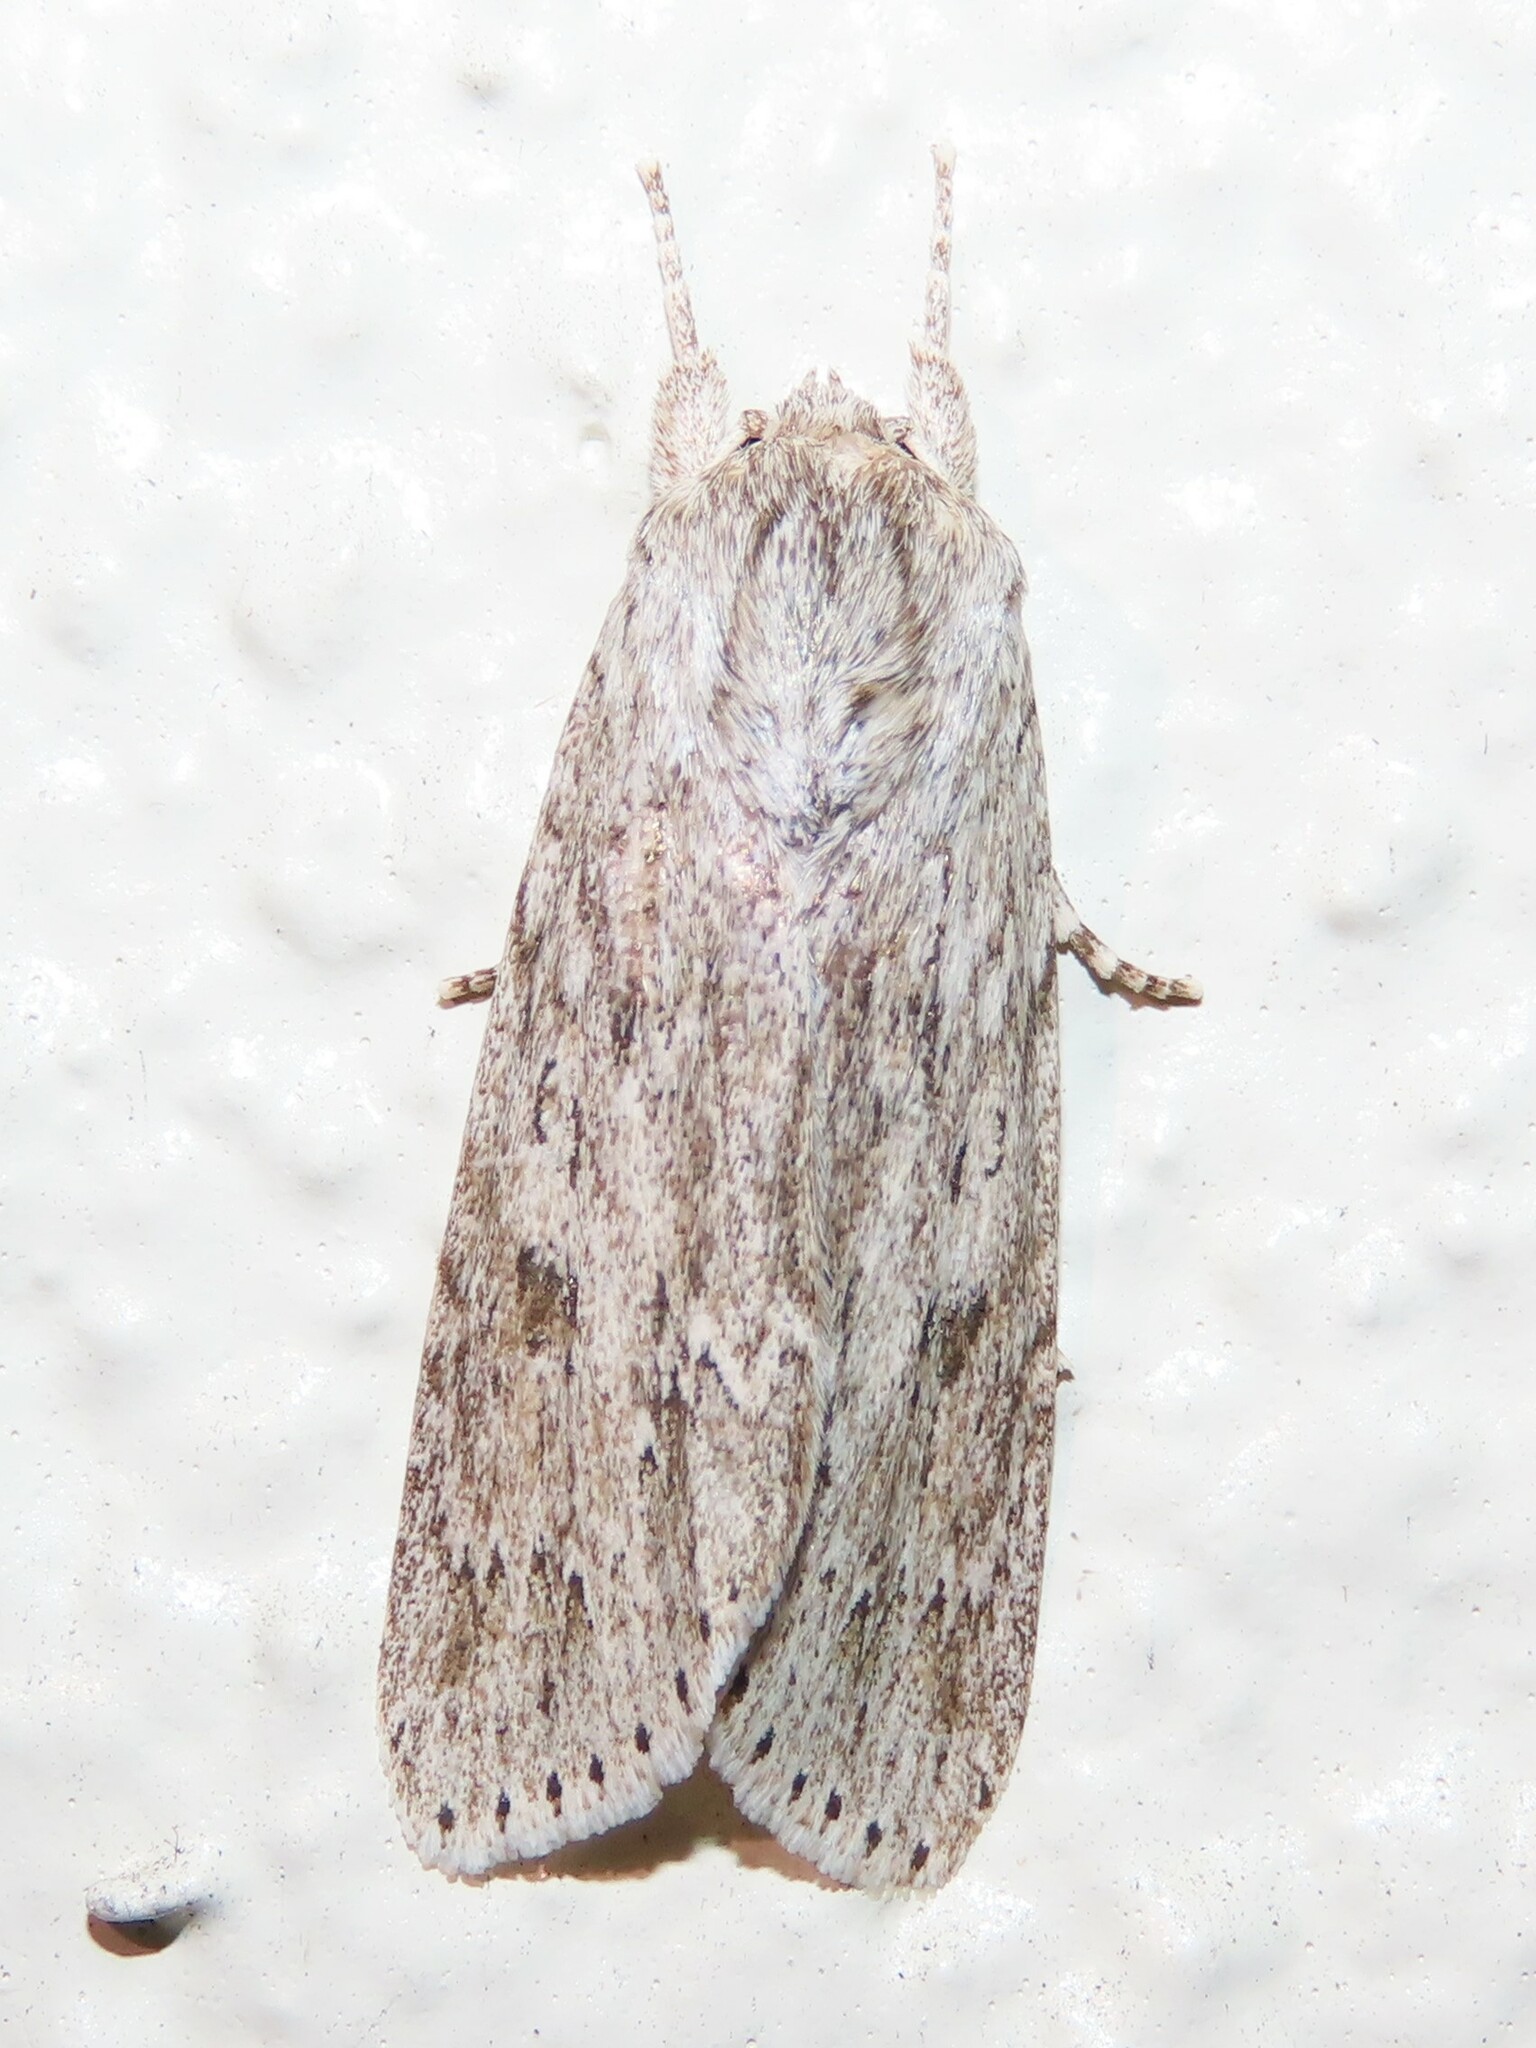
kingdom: Animalia
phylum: Arthropoda
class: Insecta
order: Lepidoptera
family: Noctuidae
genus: Acronicta
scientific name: Acronicta oblinita
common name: Smeared dagger
